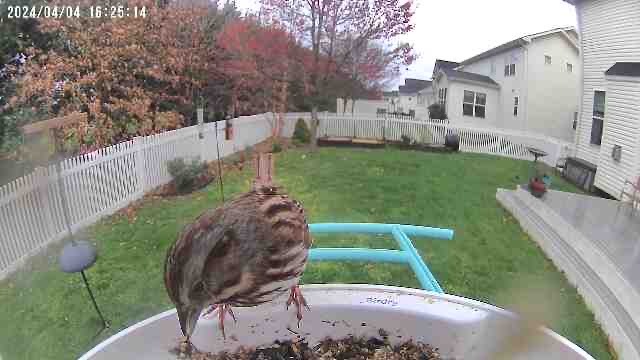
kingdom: Animalia
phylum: Chordata
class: Aves
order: Passeriformes
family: Passerellidae
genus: Melospiza
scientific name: Melospiza melodia
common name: Song sparrow
